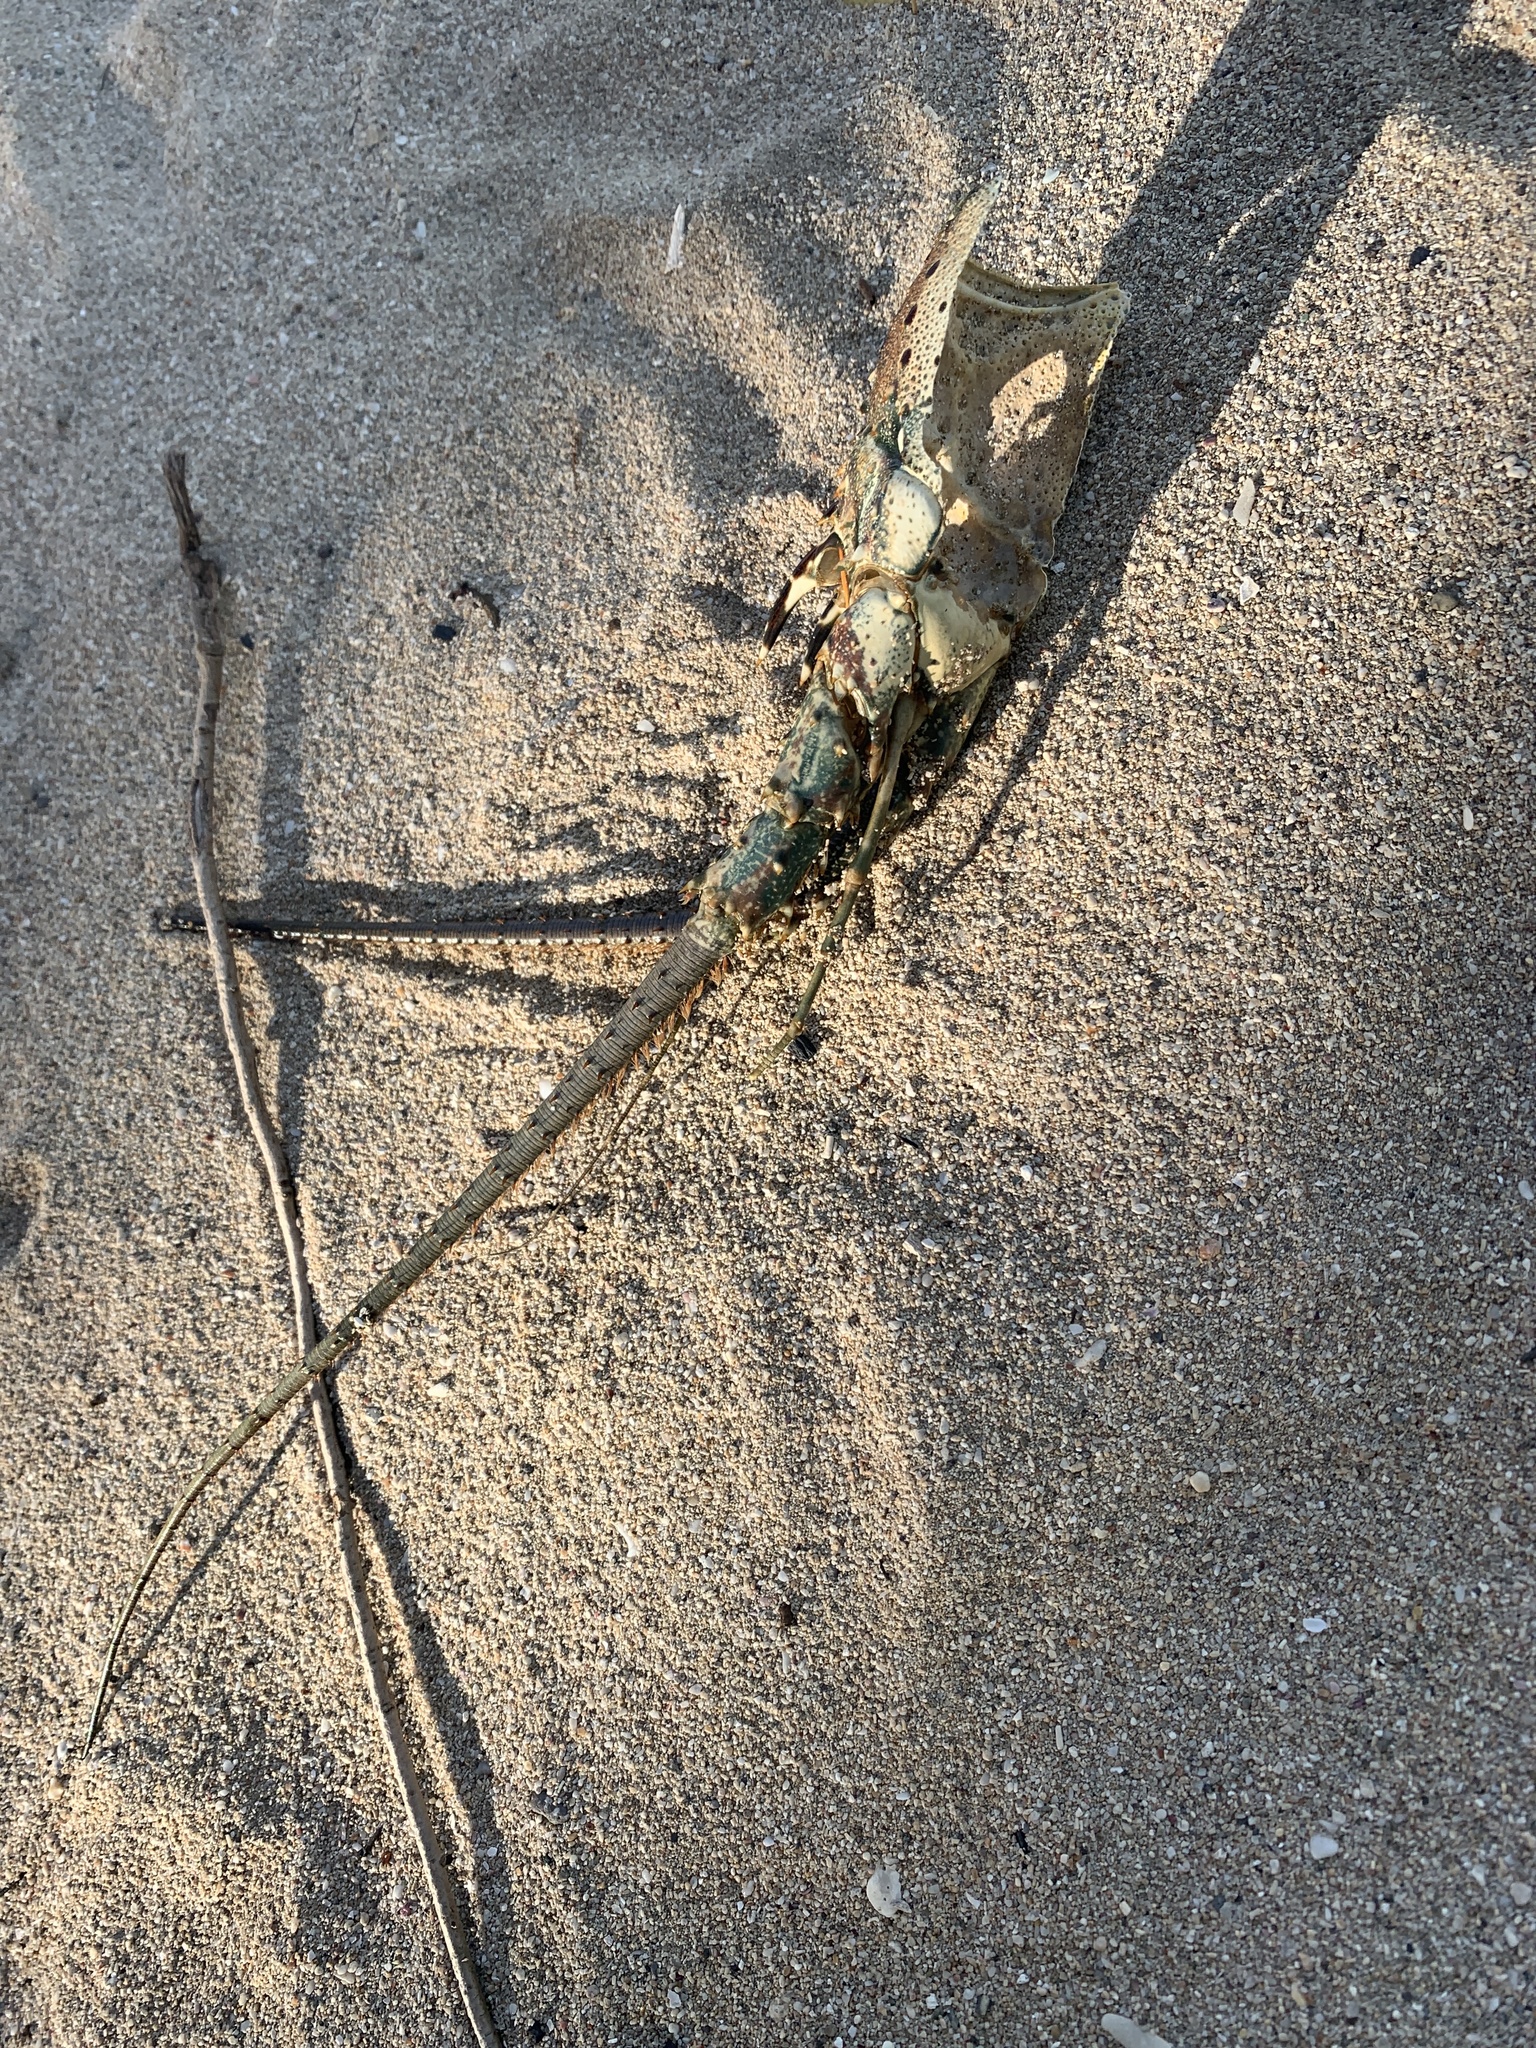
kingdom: Animalia
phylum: Arthropoda
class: Malacostraca
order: Decapoda
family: Palinuridae
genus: Panulirus
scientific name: Panulirus argus
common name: Caribbean spiny lobster
